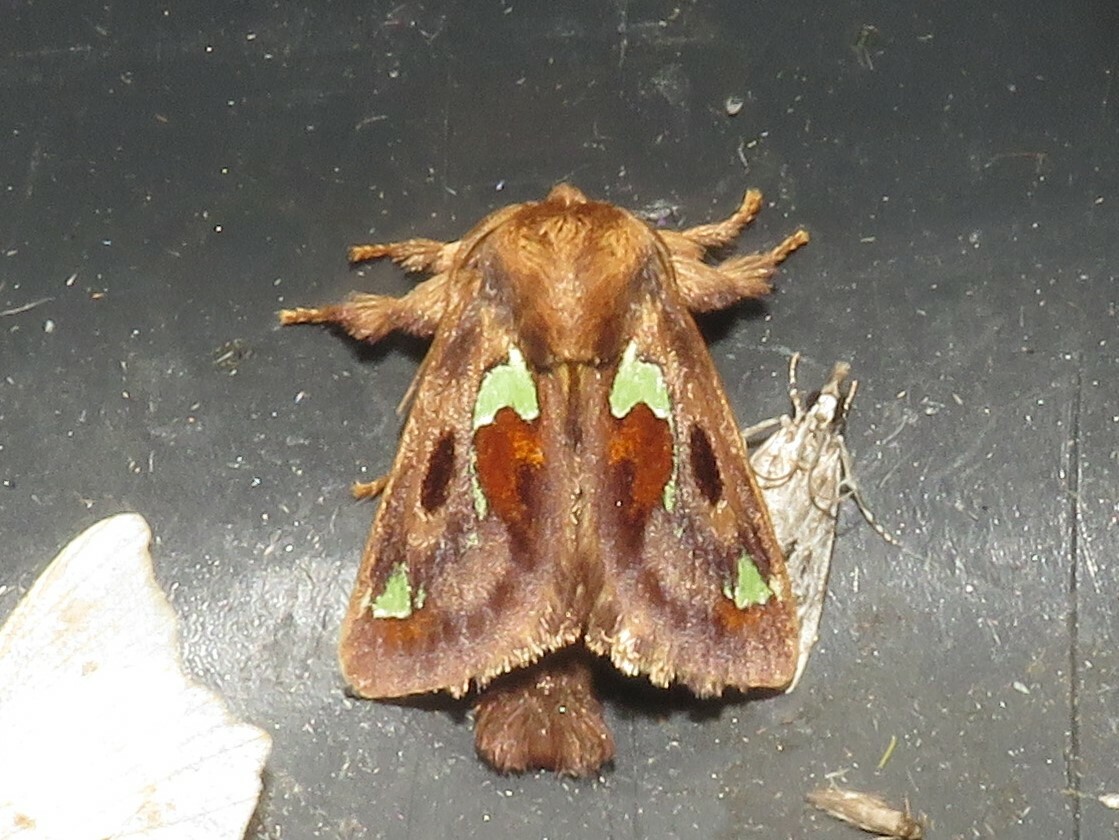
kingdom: Animalia
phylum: Arthropoda
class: Insecta
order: Lepidoptera
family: Limacodidae
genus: Euclea
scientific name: Euclea delphinii
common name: Spiny oak-slug moth
